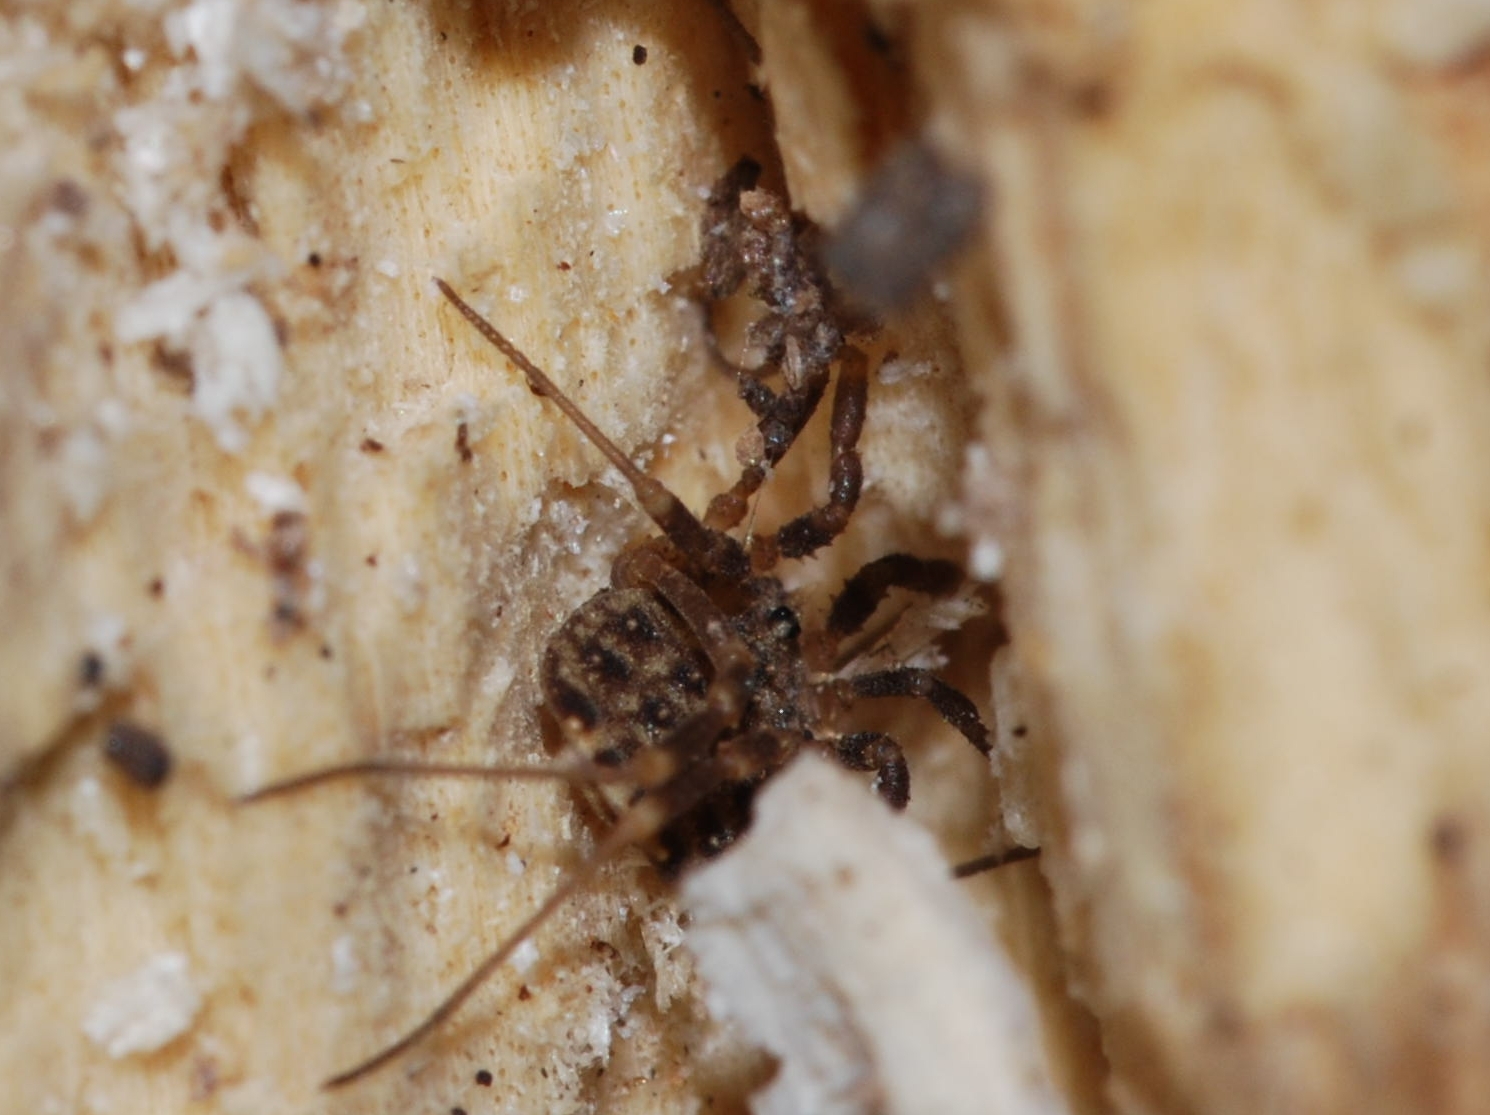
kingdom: Animalia
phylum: Arthropoda
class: Arachnida
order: Opiliones
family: Sclerosomatidae
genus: Homalenotus
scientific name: Homalenotus quadridentatus
